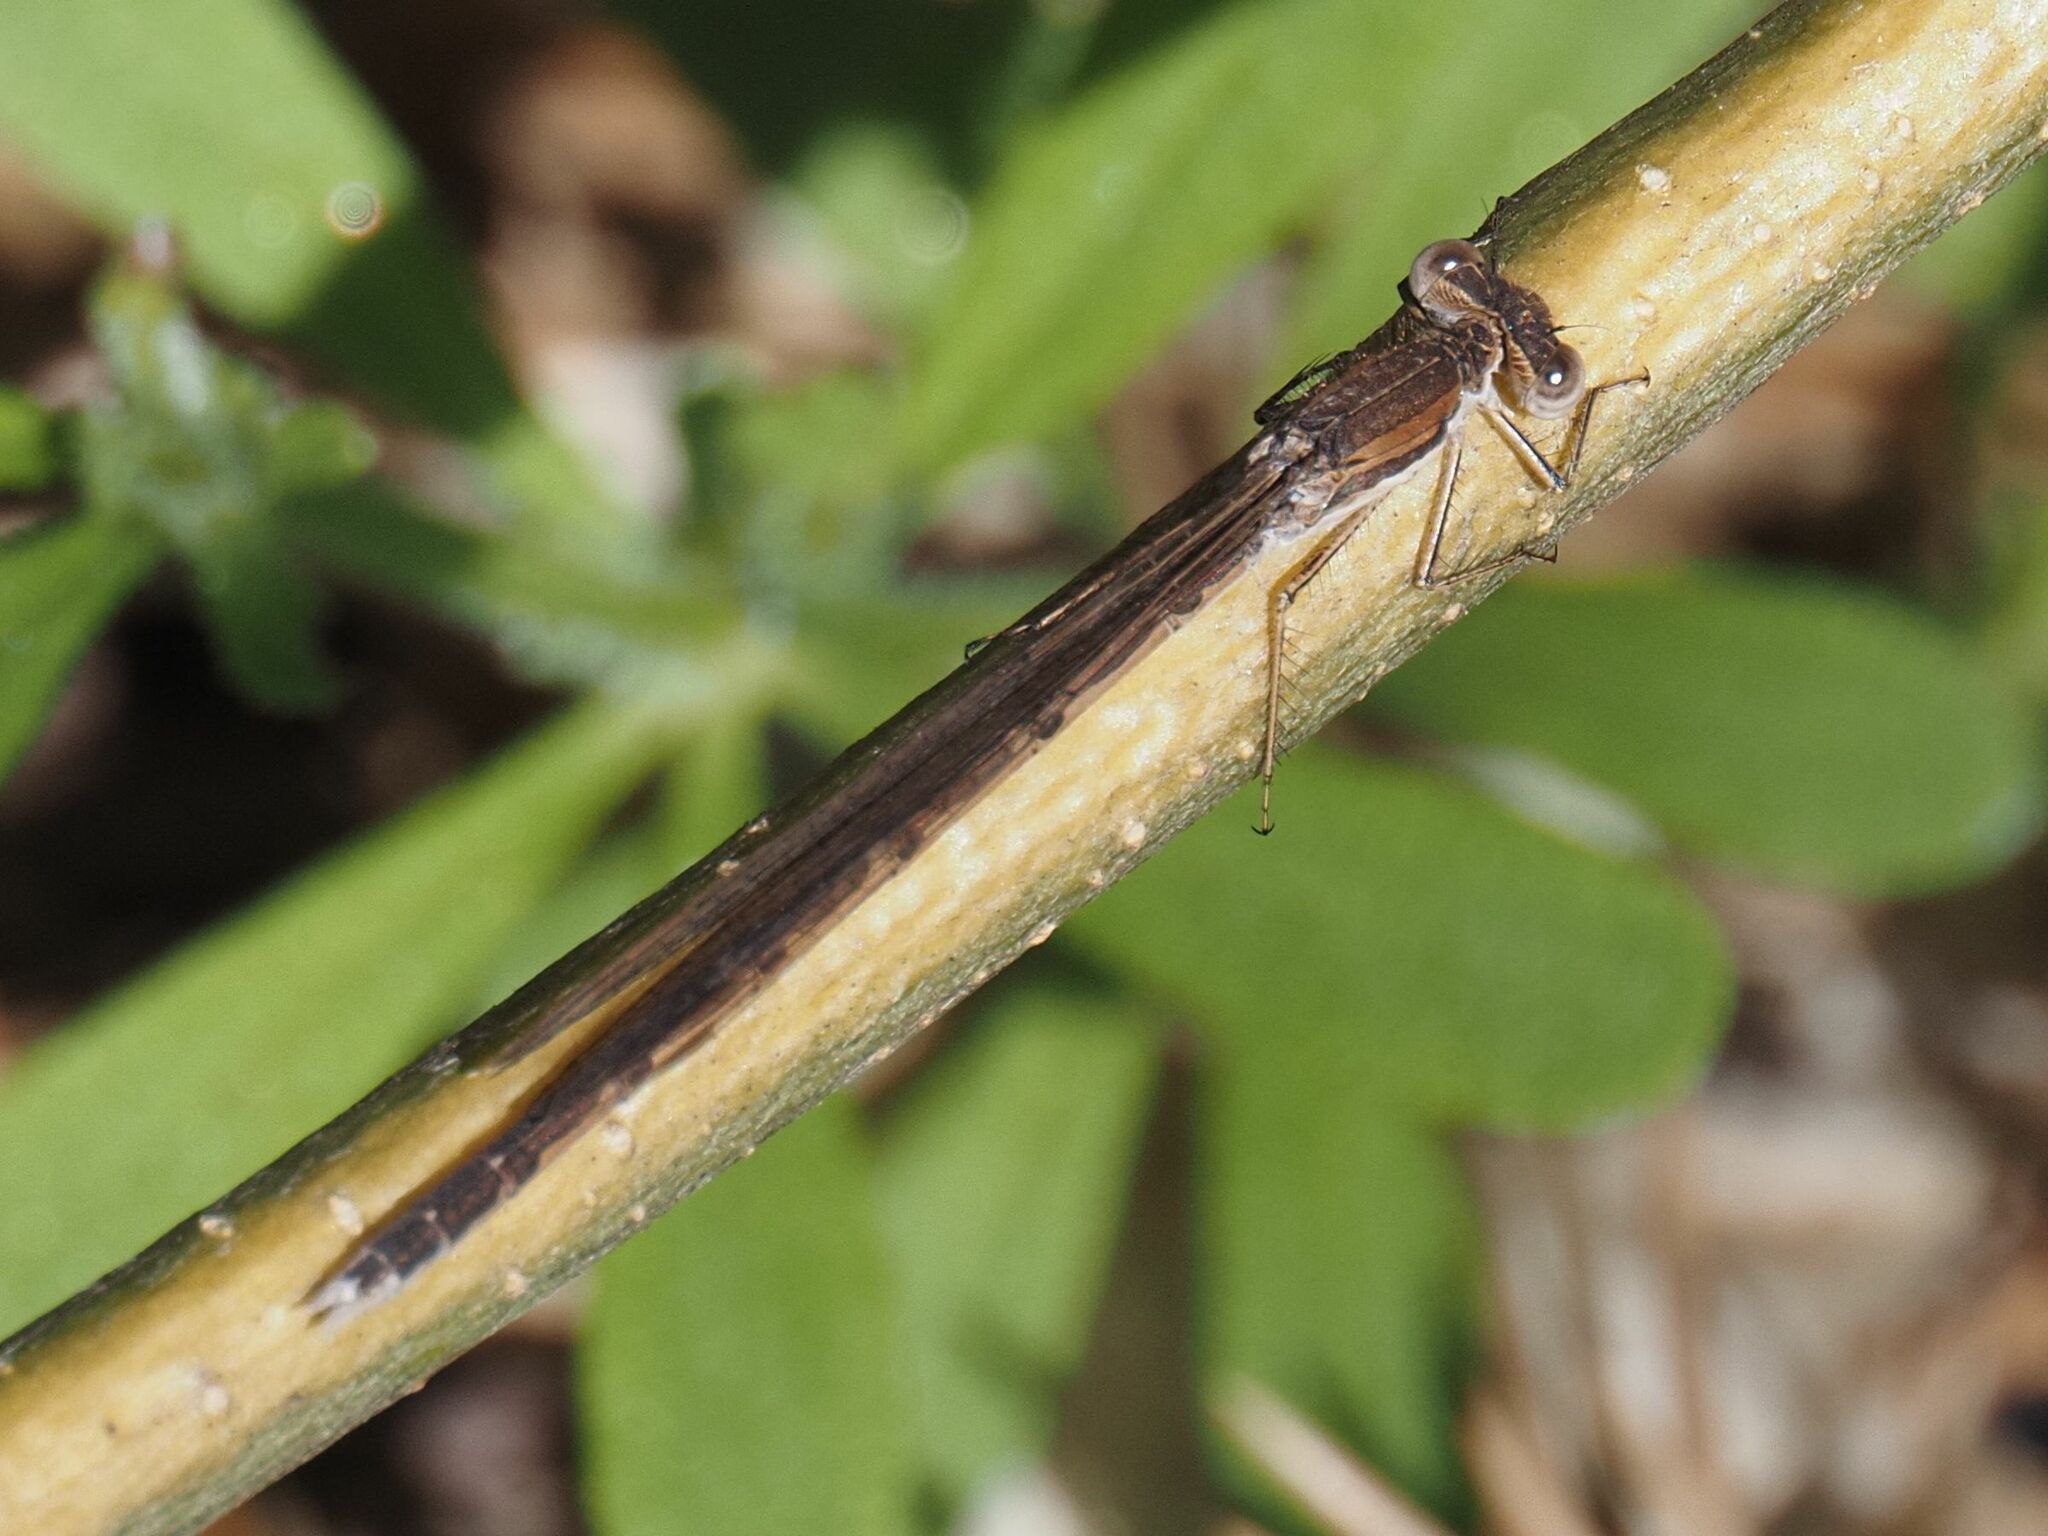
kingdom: Animalia
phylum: Arthropoda
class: Insecta
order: Odonata
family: Lestidae
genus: Sympecma
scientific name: Sympecma fusca
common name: Common winter damsel
